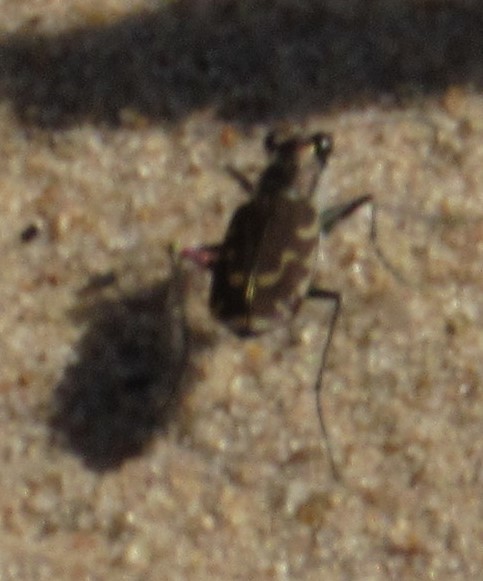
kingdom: Animalia
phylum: Arthropoda
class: Insecta
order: Coleoptera
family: Carabidae
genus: Cicindela
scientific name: Cicindela repanda
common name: Bronzed tiger beetle
